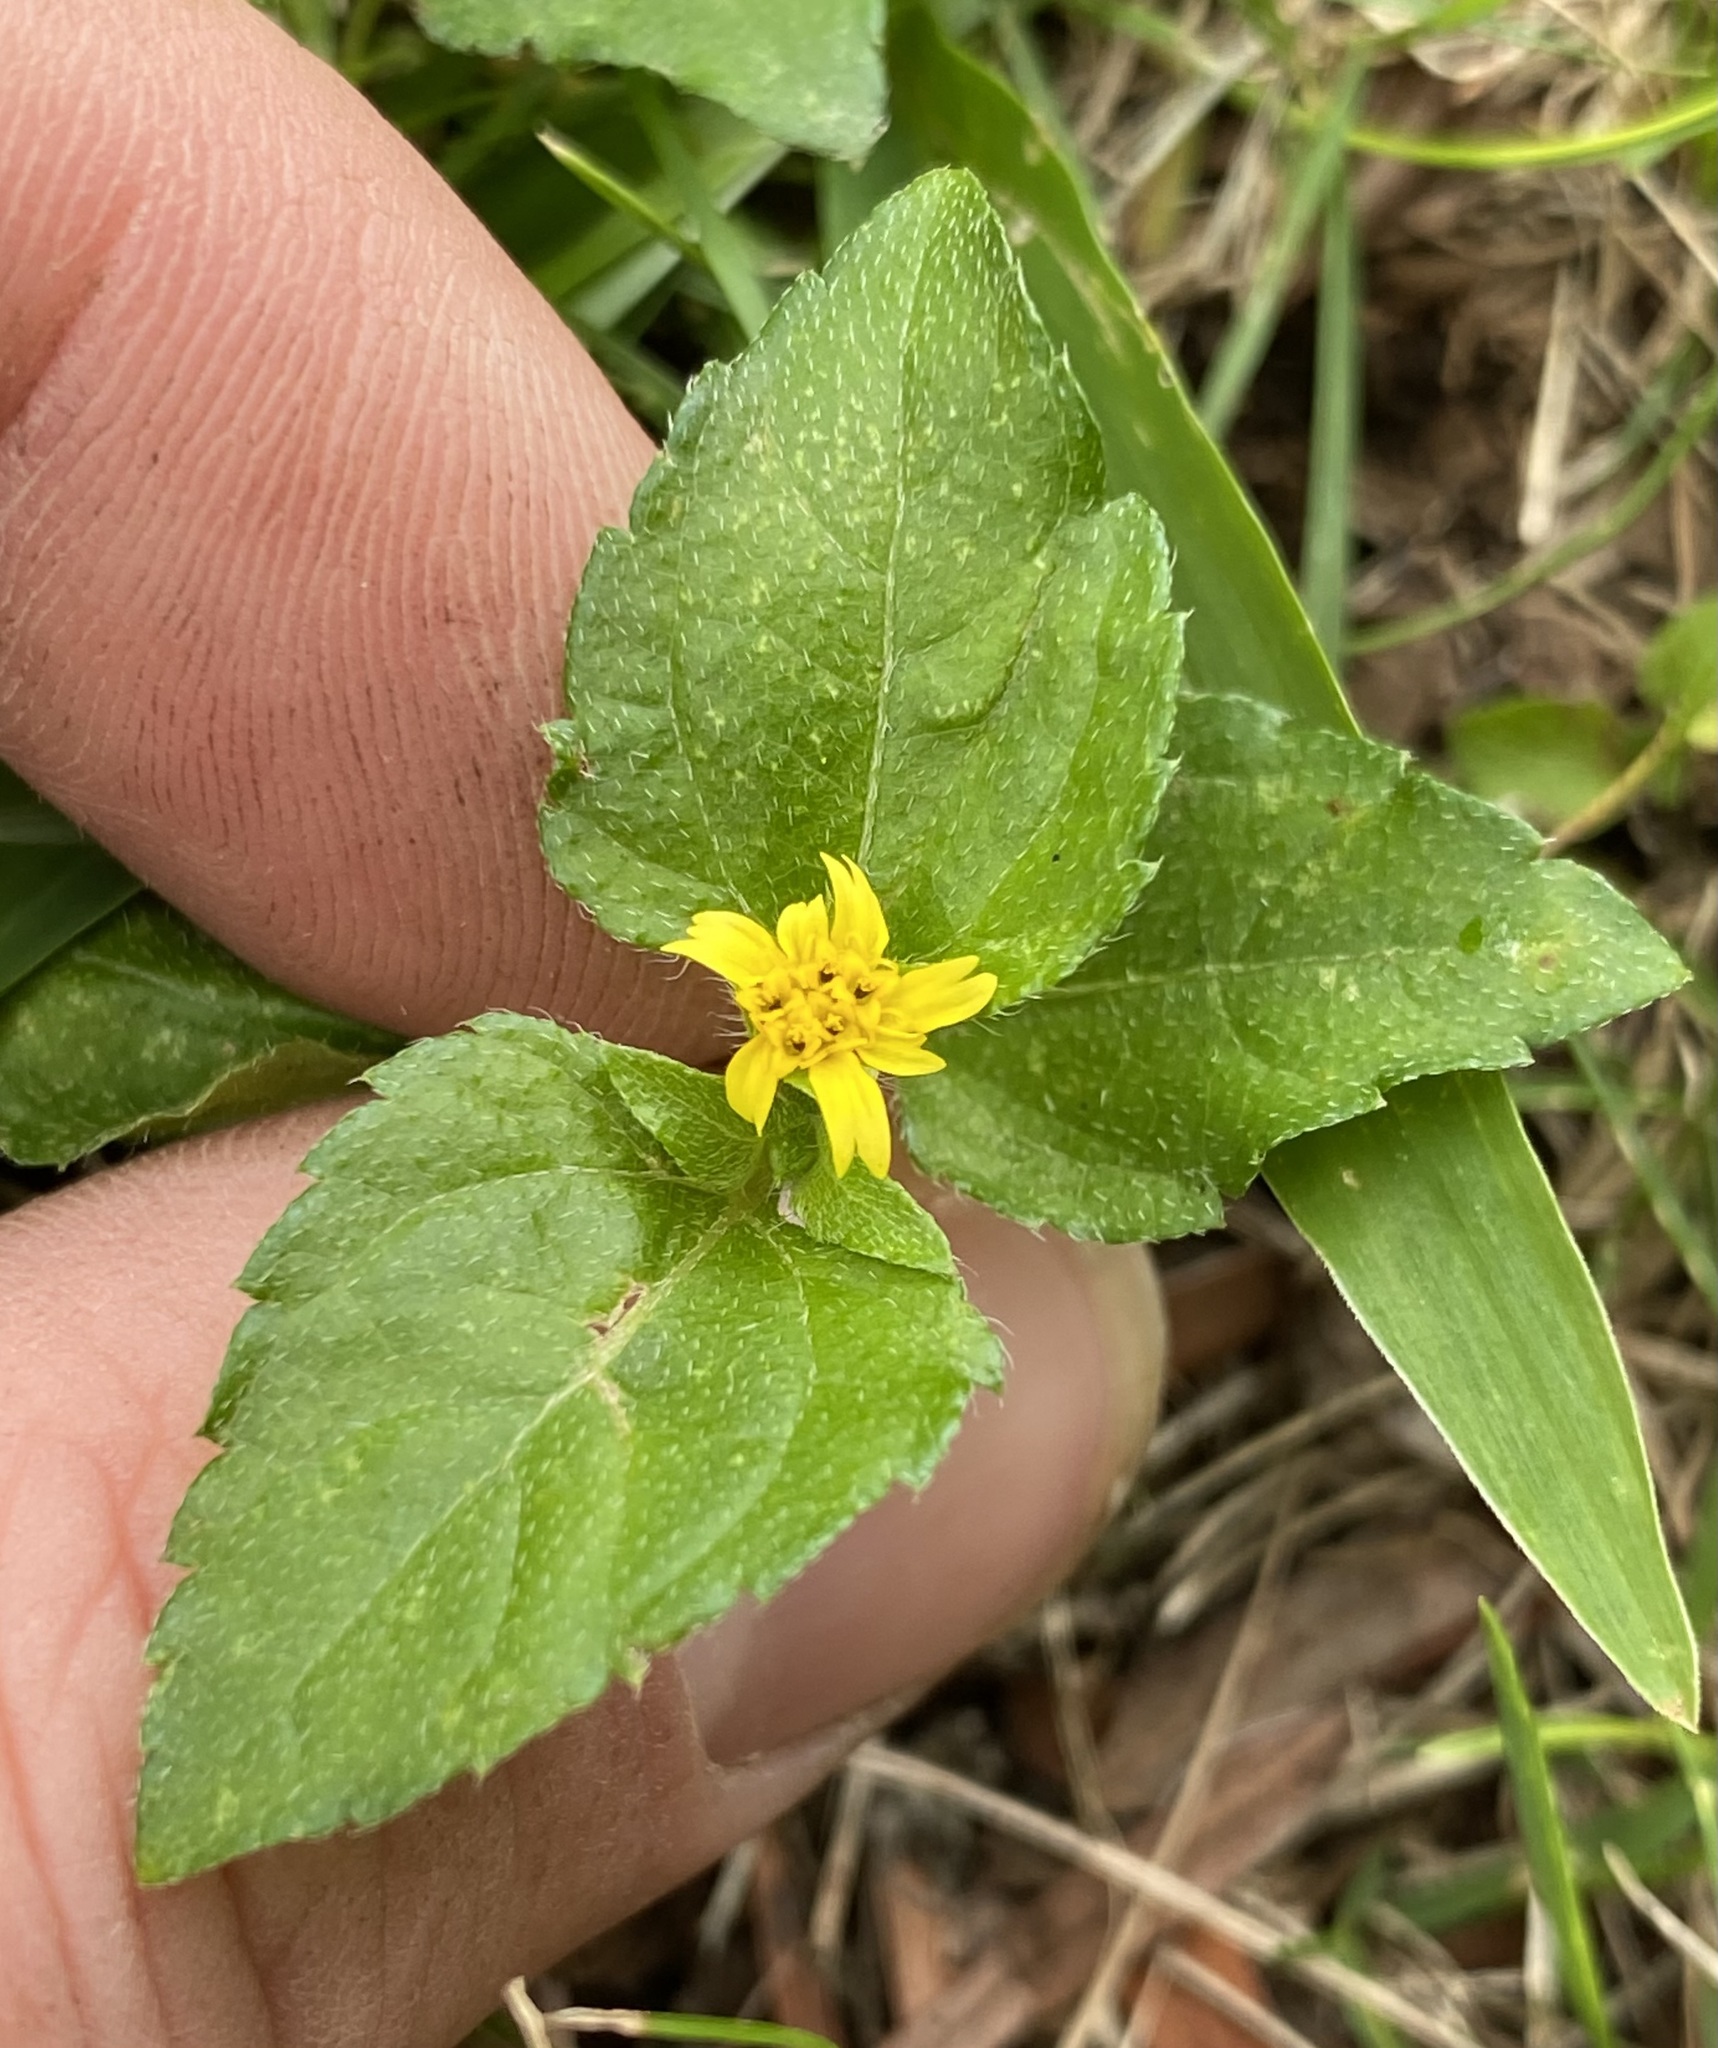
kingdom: Plantae
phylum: Tracheophyta
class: Magnoliopsida
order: Asterales
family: Asteraceae
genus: Calyptocarpus
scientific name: Calyptocarpus vialis
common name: Straggler daisy
